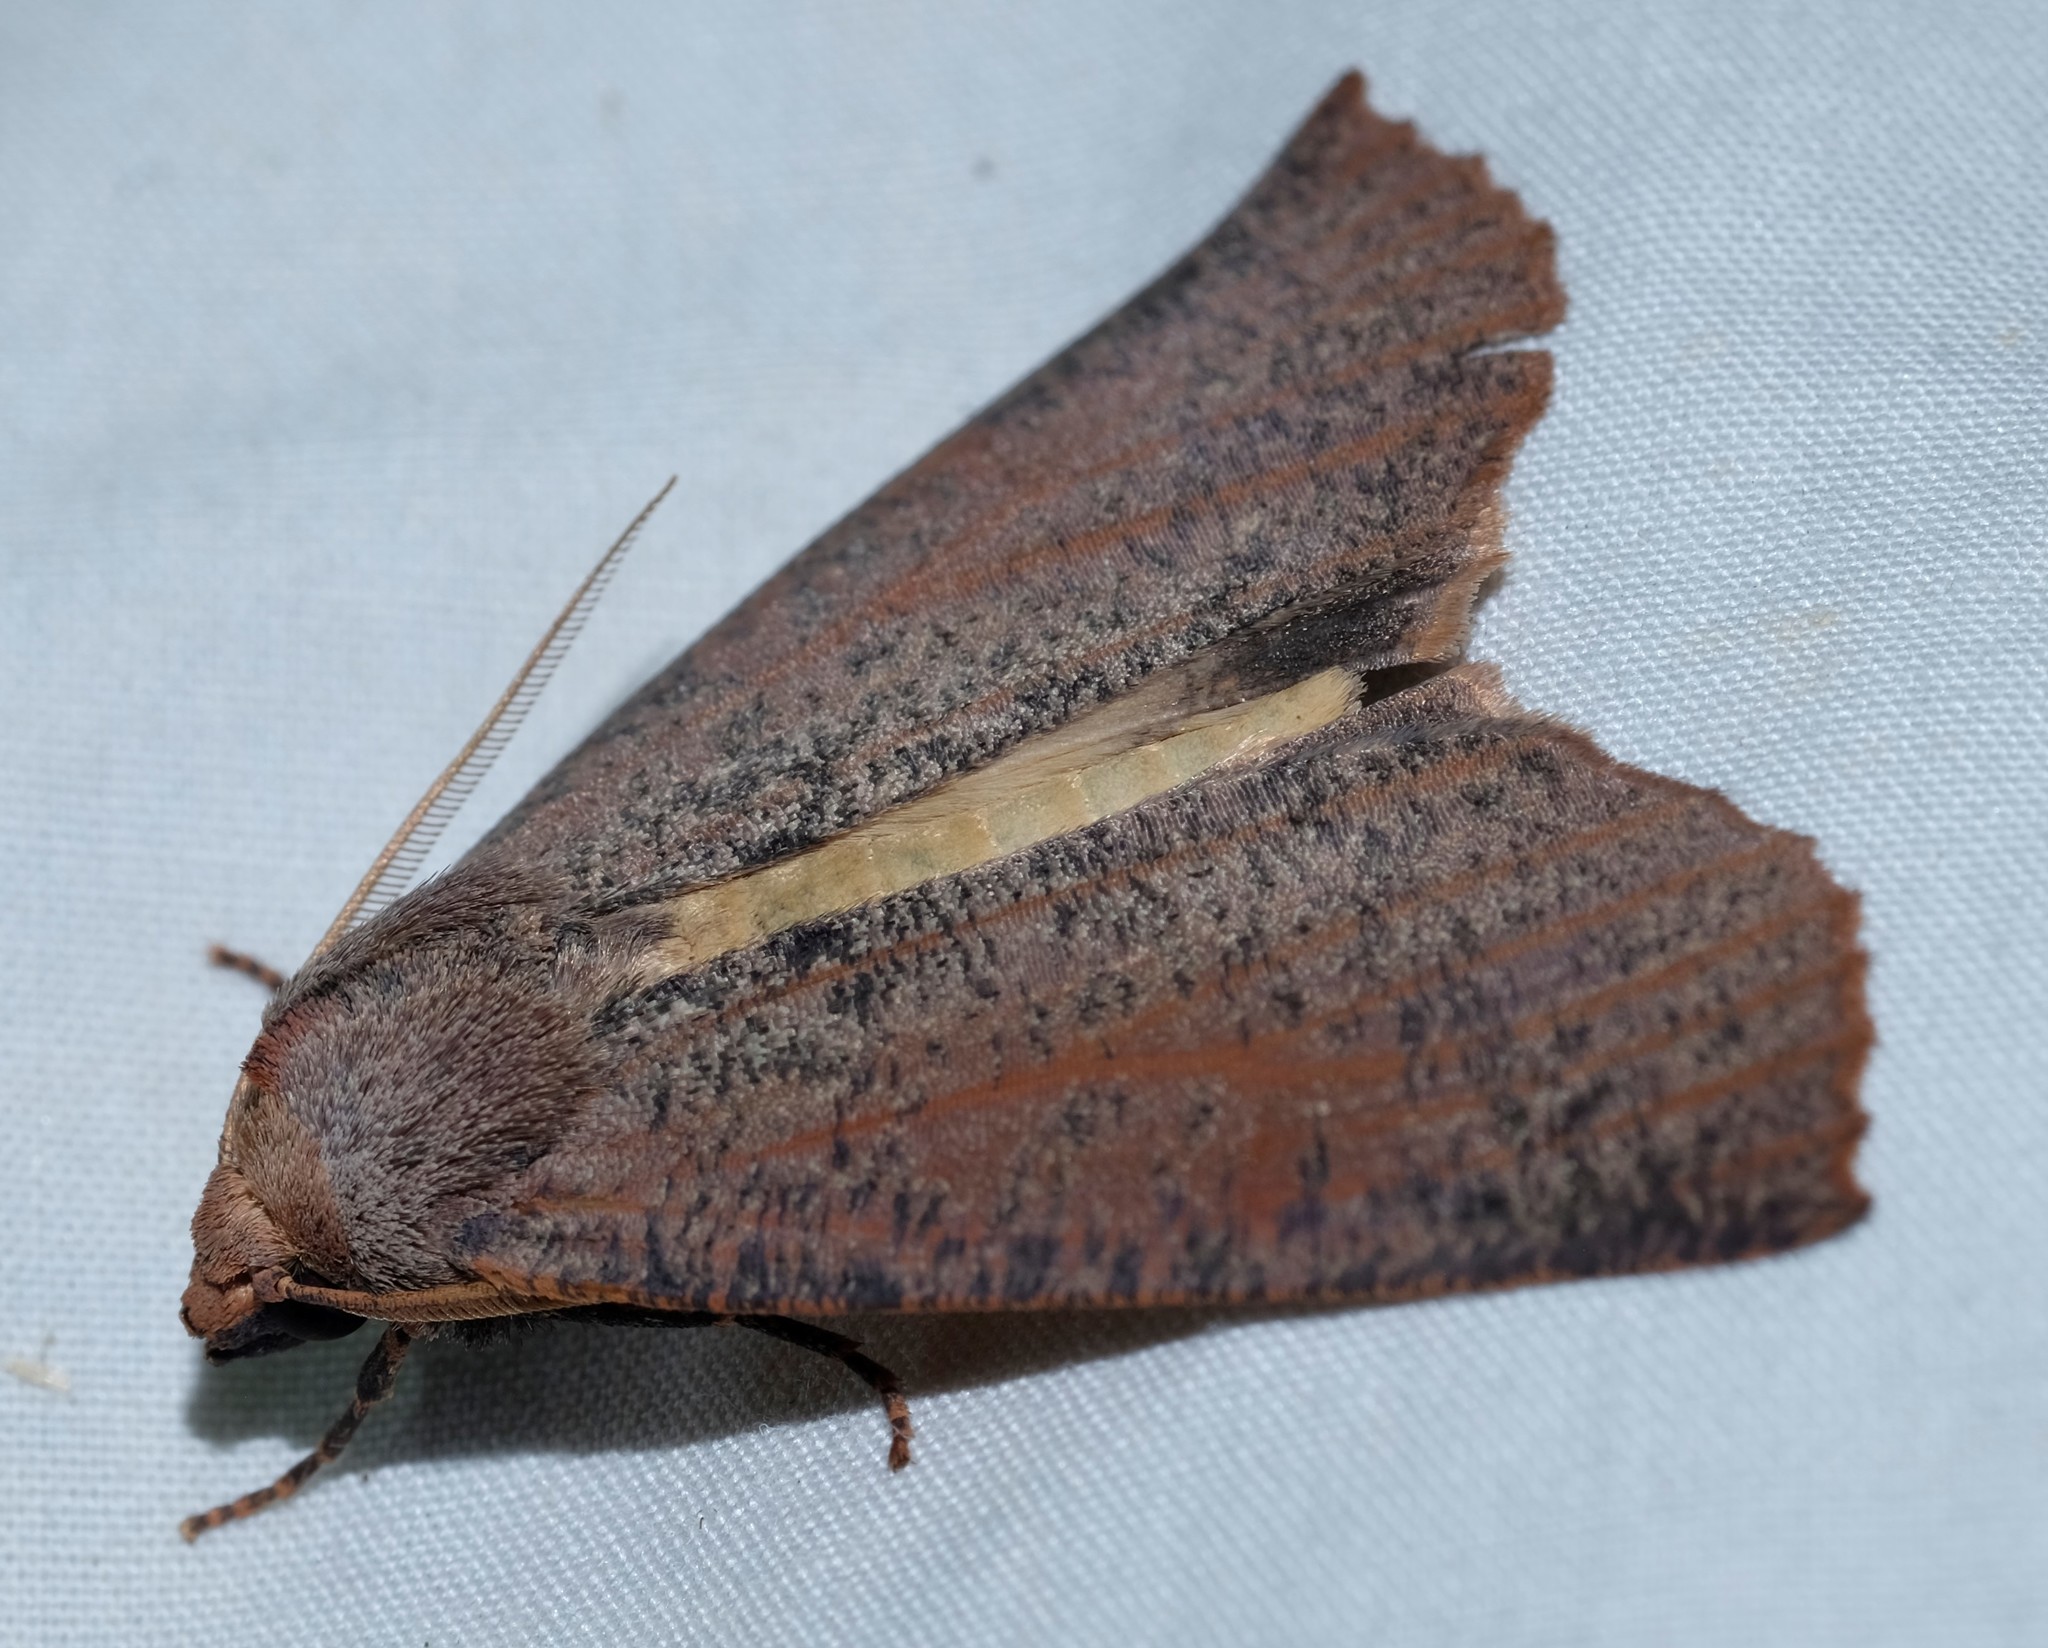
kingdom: Animalia
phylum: Arthropoda
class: Insecta
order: Lepidoptera
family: Geometridae
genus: Fisera
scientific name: Fisera eribola
